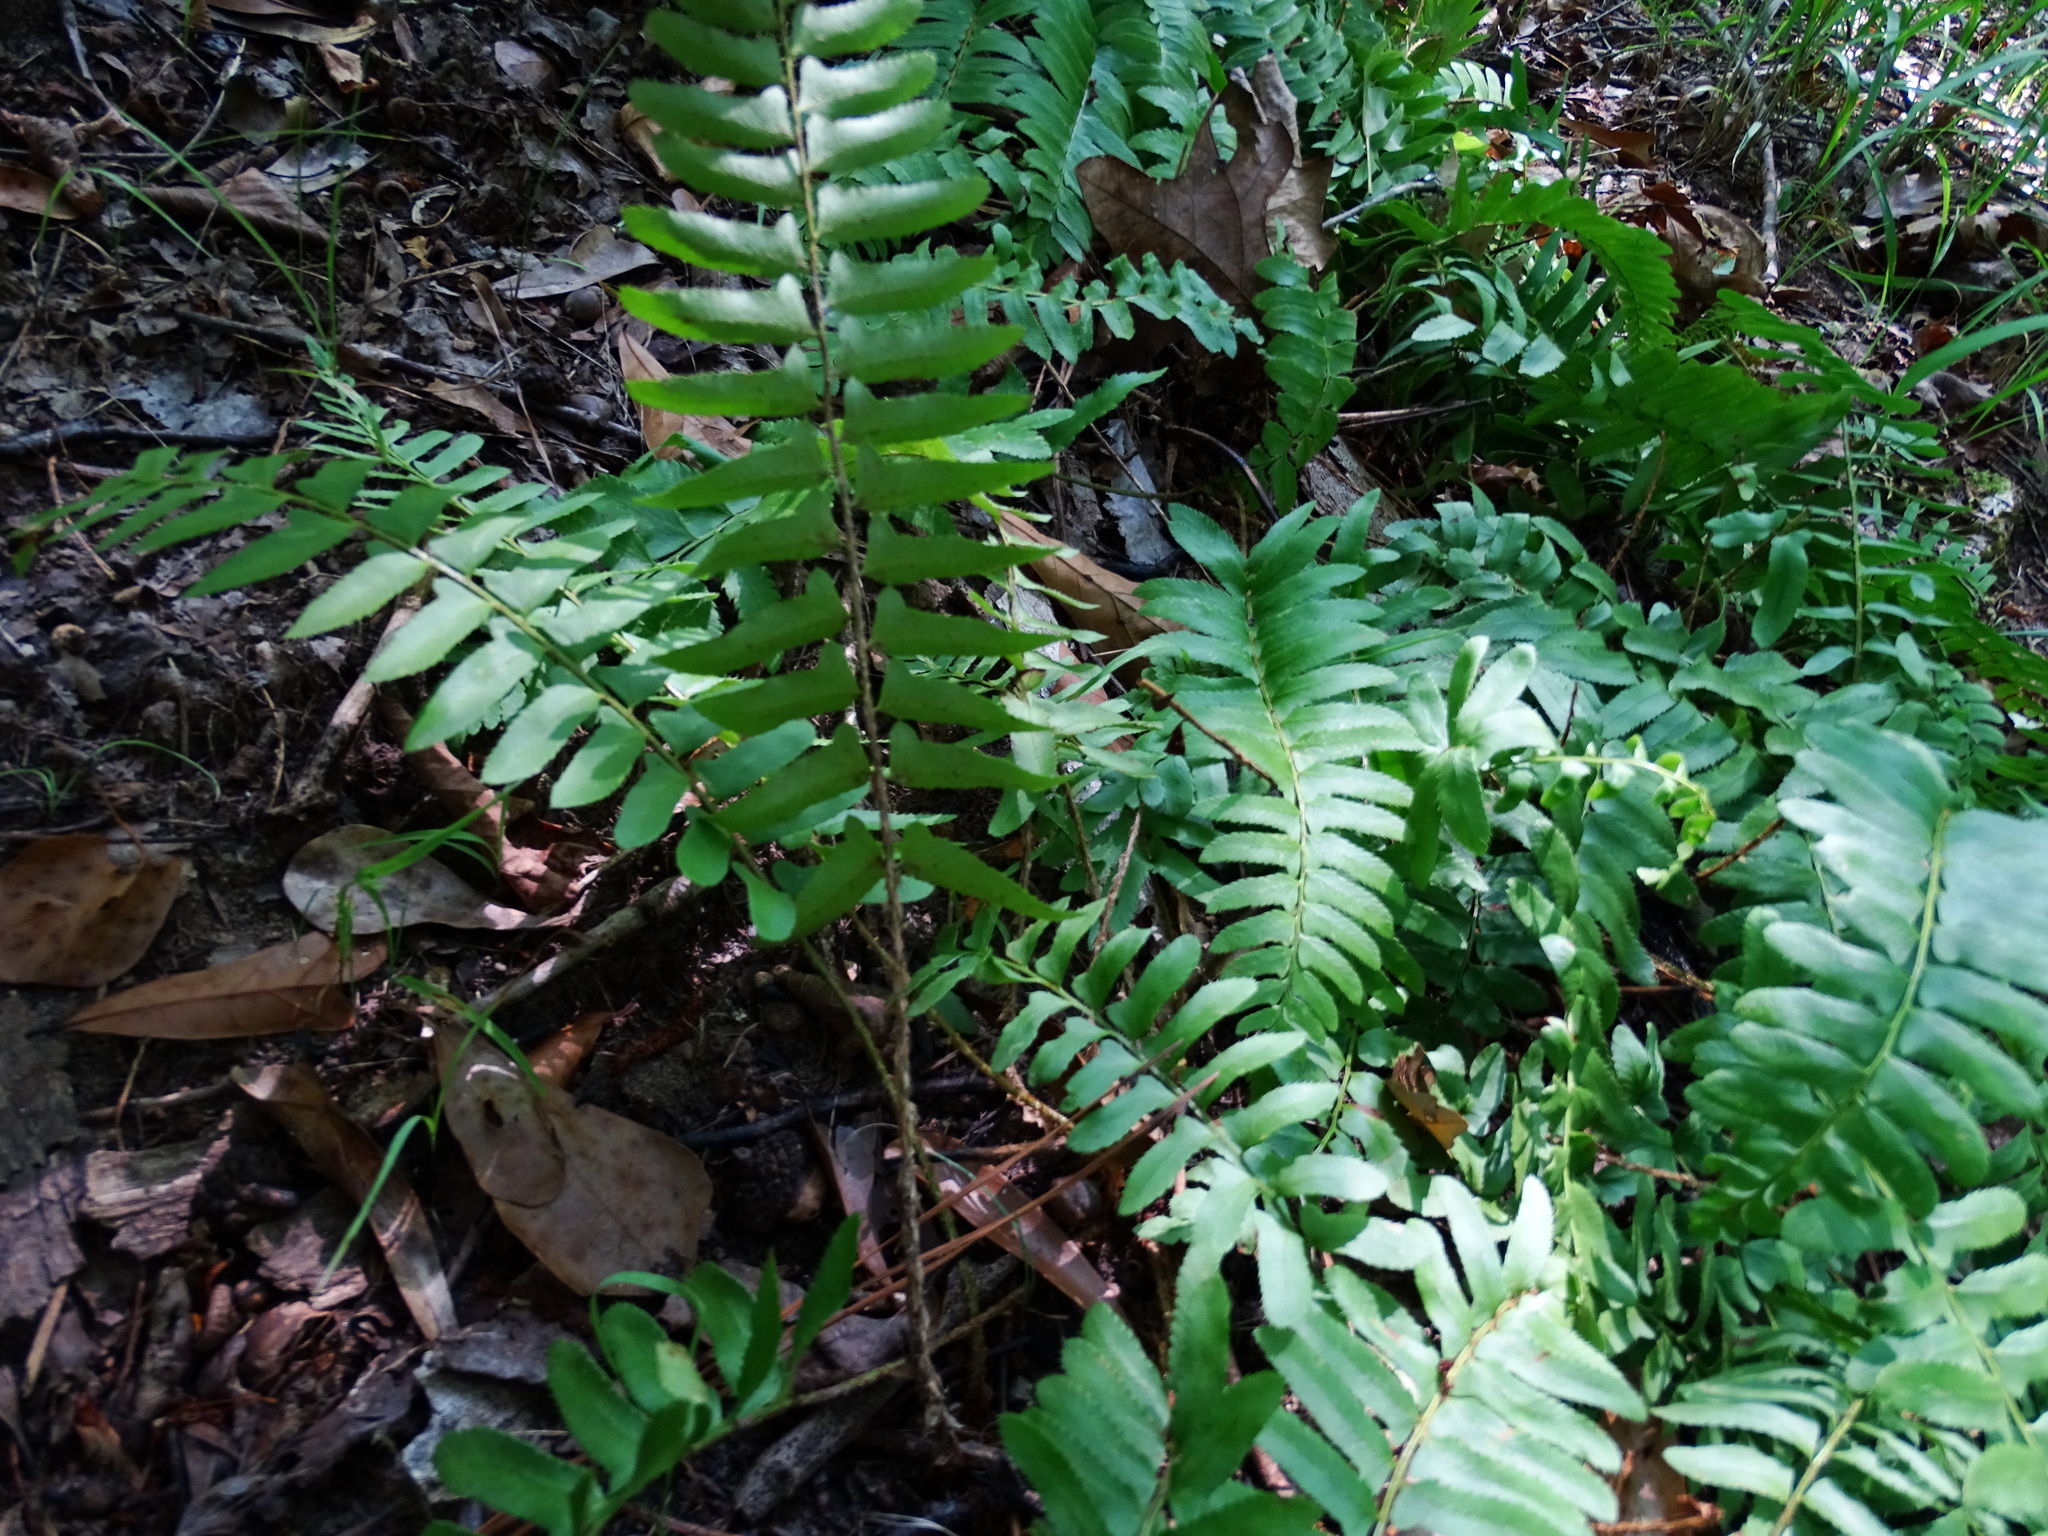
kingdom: Plantae
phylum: Tracheophyta
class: Polypodiopsida
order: Polypodiales
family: Dryopteridaceae
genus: Polystichum
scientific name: Polystichum acrostichoides
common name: Christmas fern
